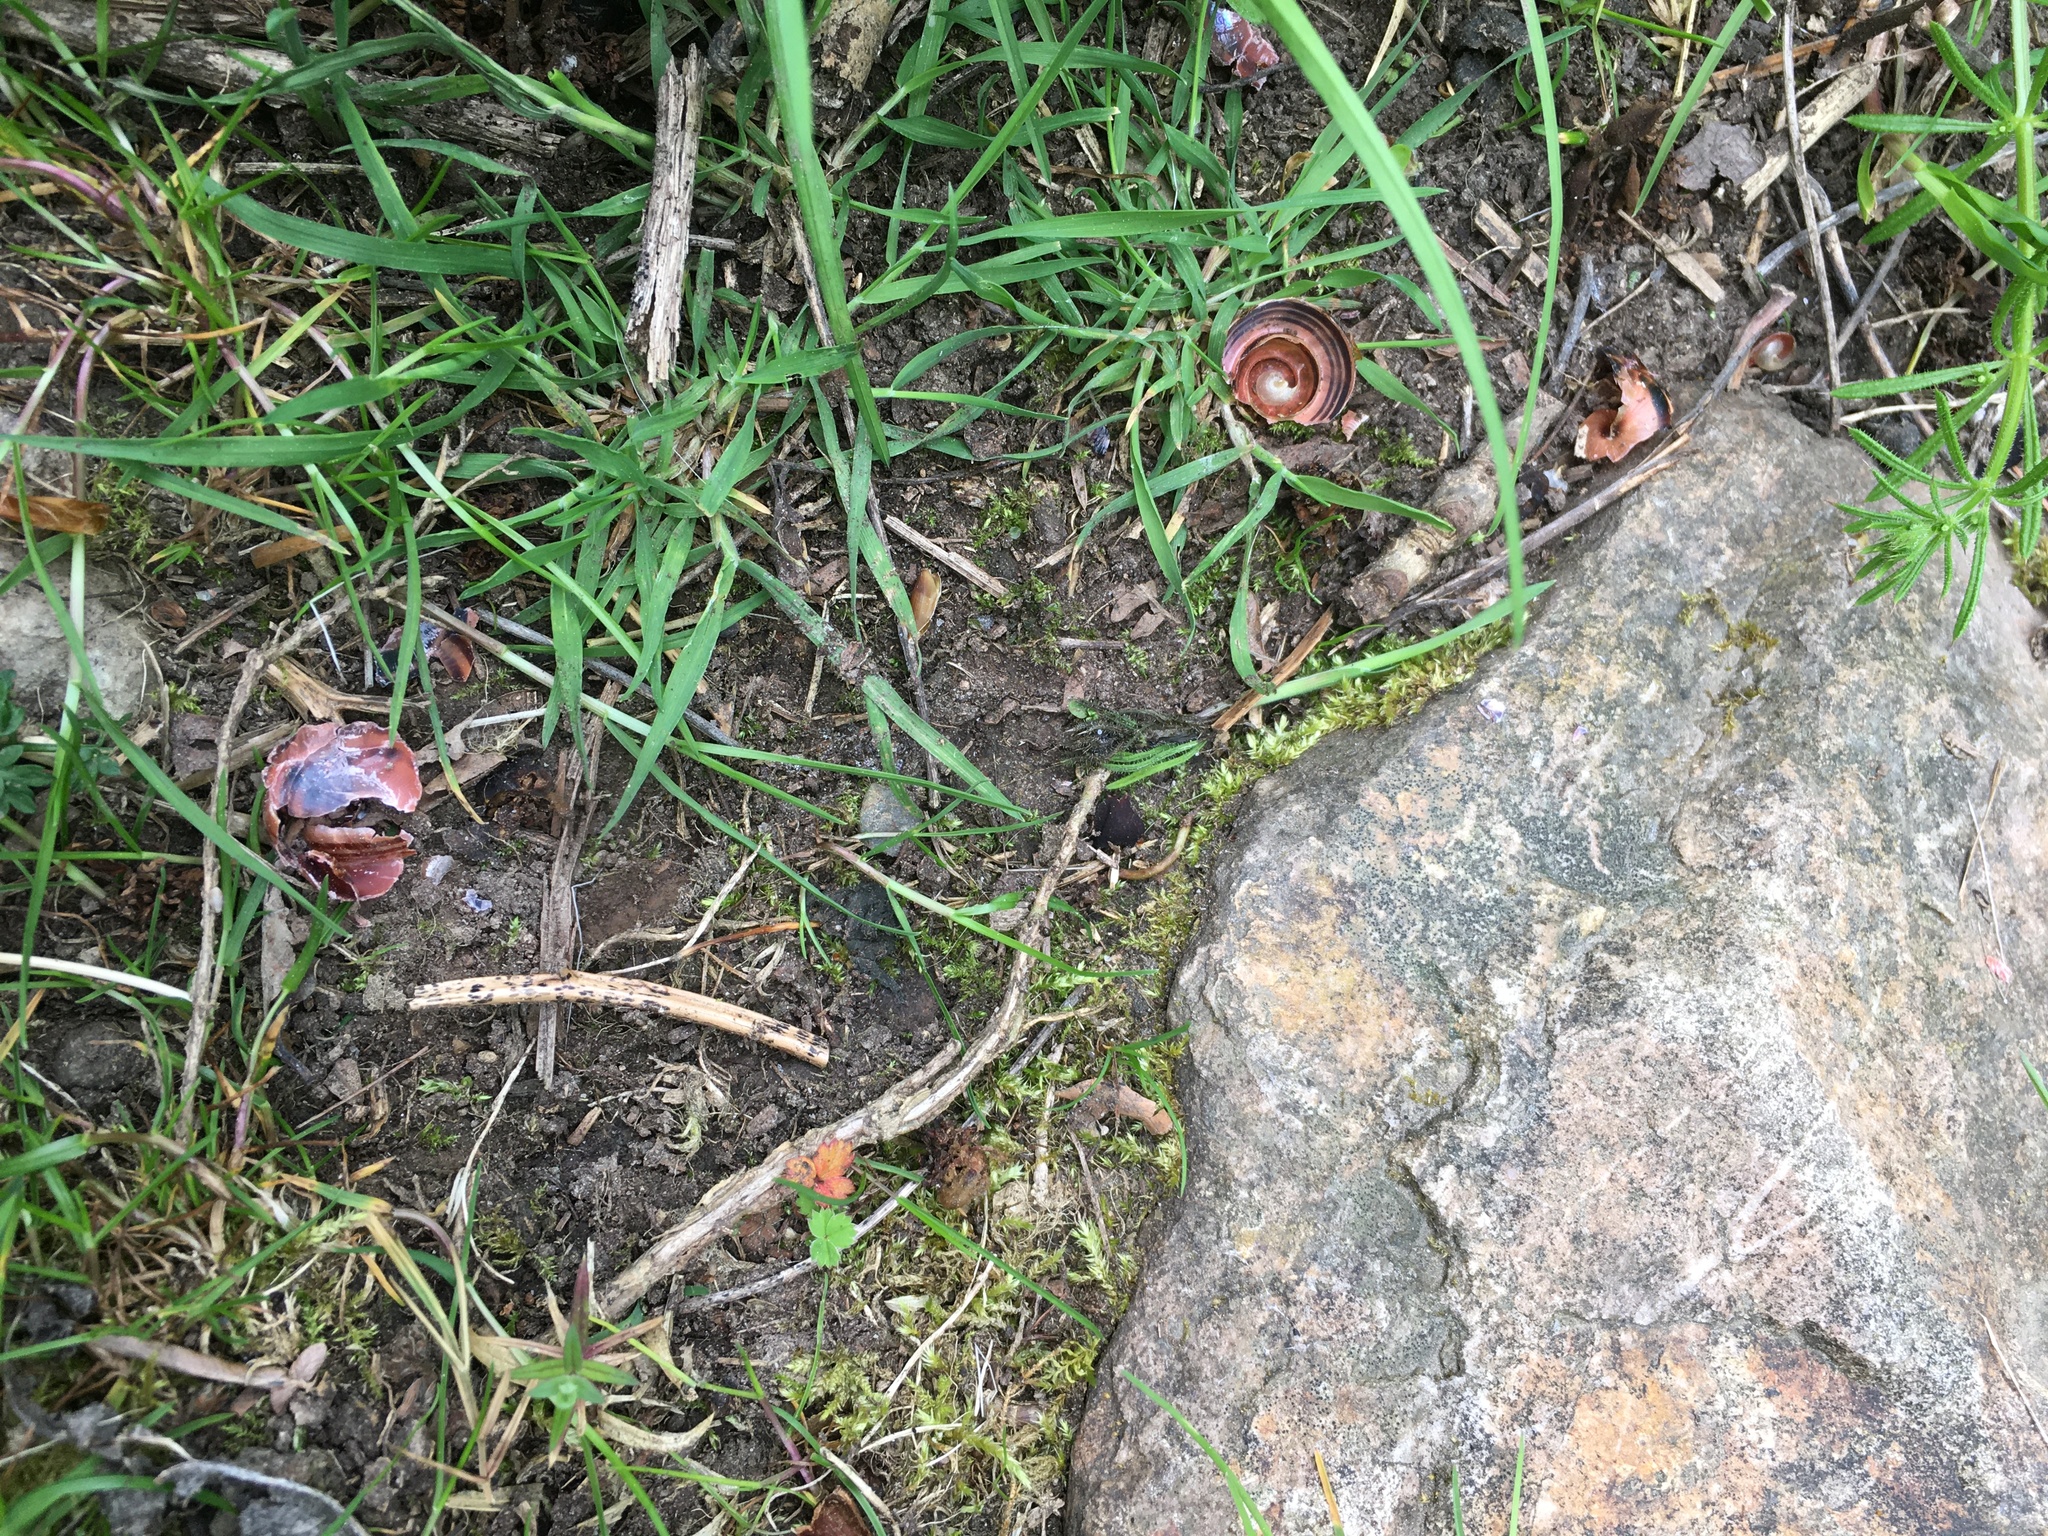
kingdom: Animalia
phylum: Chordata
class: Aves
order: Passeriformes
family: Turdidae
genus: Turdus
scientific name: Turdus philomelos
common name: Song thrush
